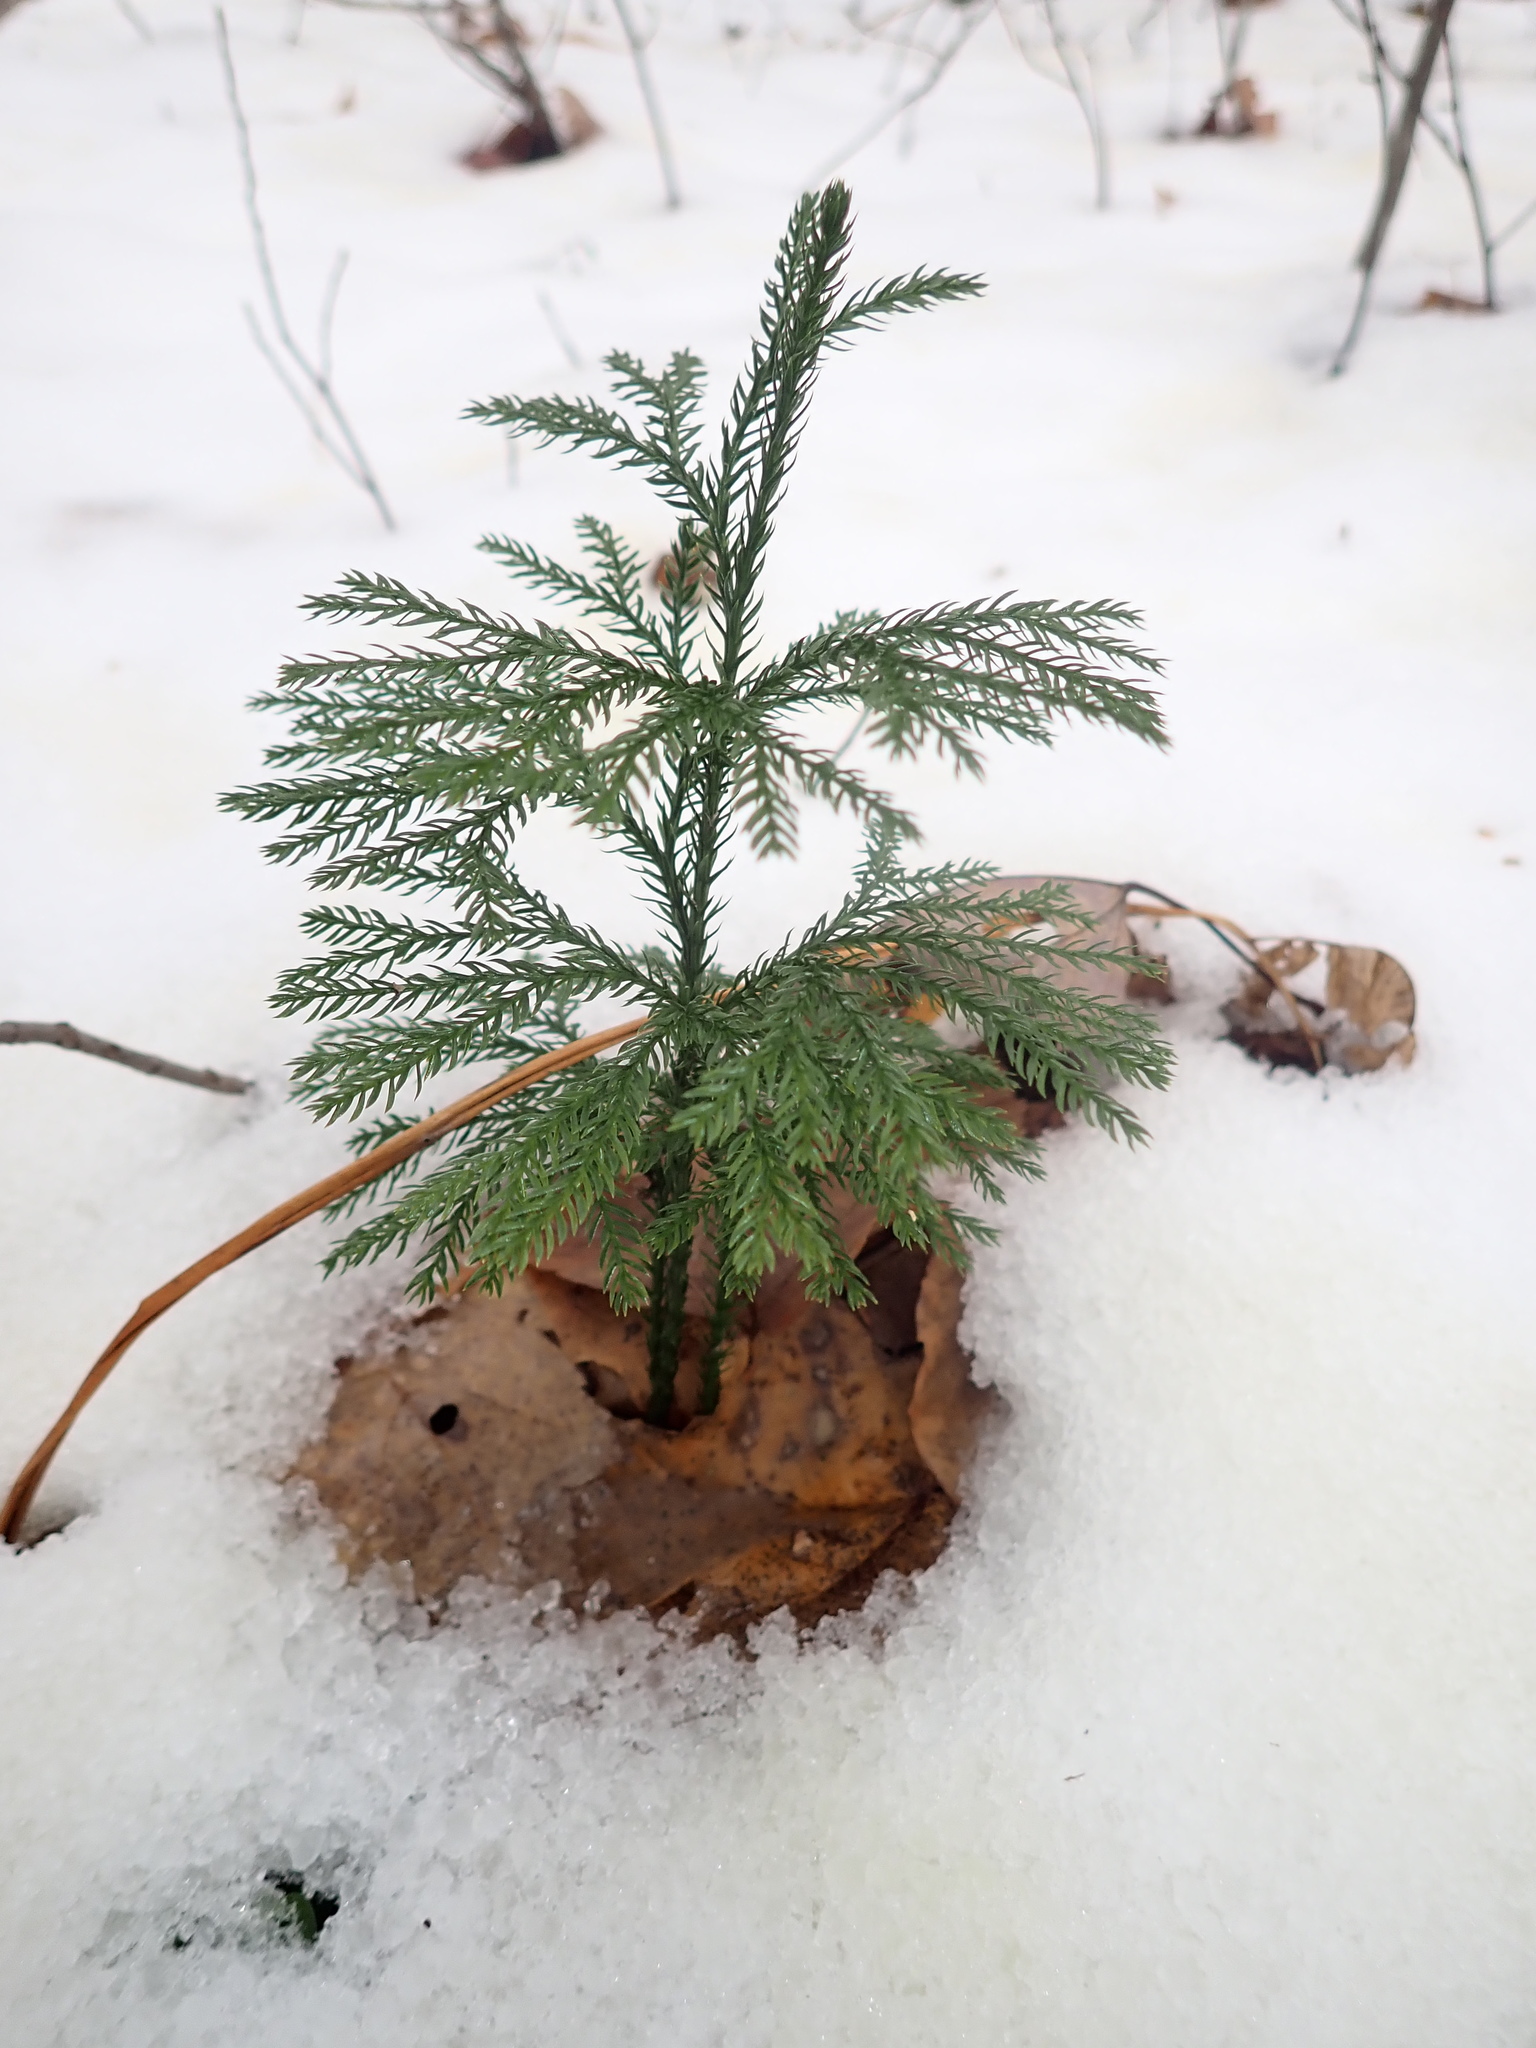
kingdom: Plantae
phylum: Tracheophyta
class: Lycopodiopsida
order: Lycopodiales
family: Lycopodiaceae
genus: Dendrolycopodium
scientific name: Dendrolycopodium obscurum
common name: Common ground-pine
